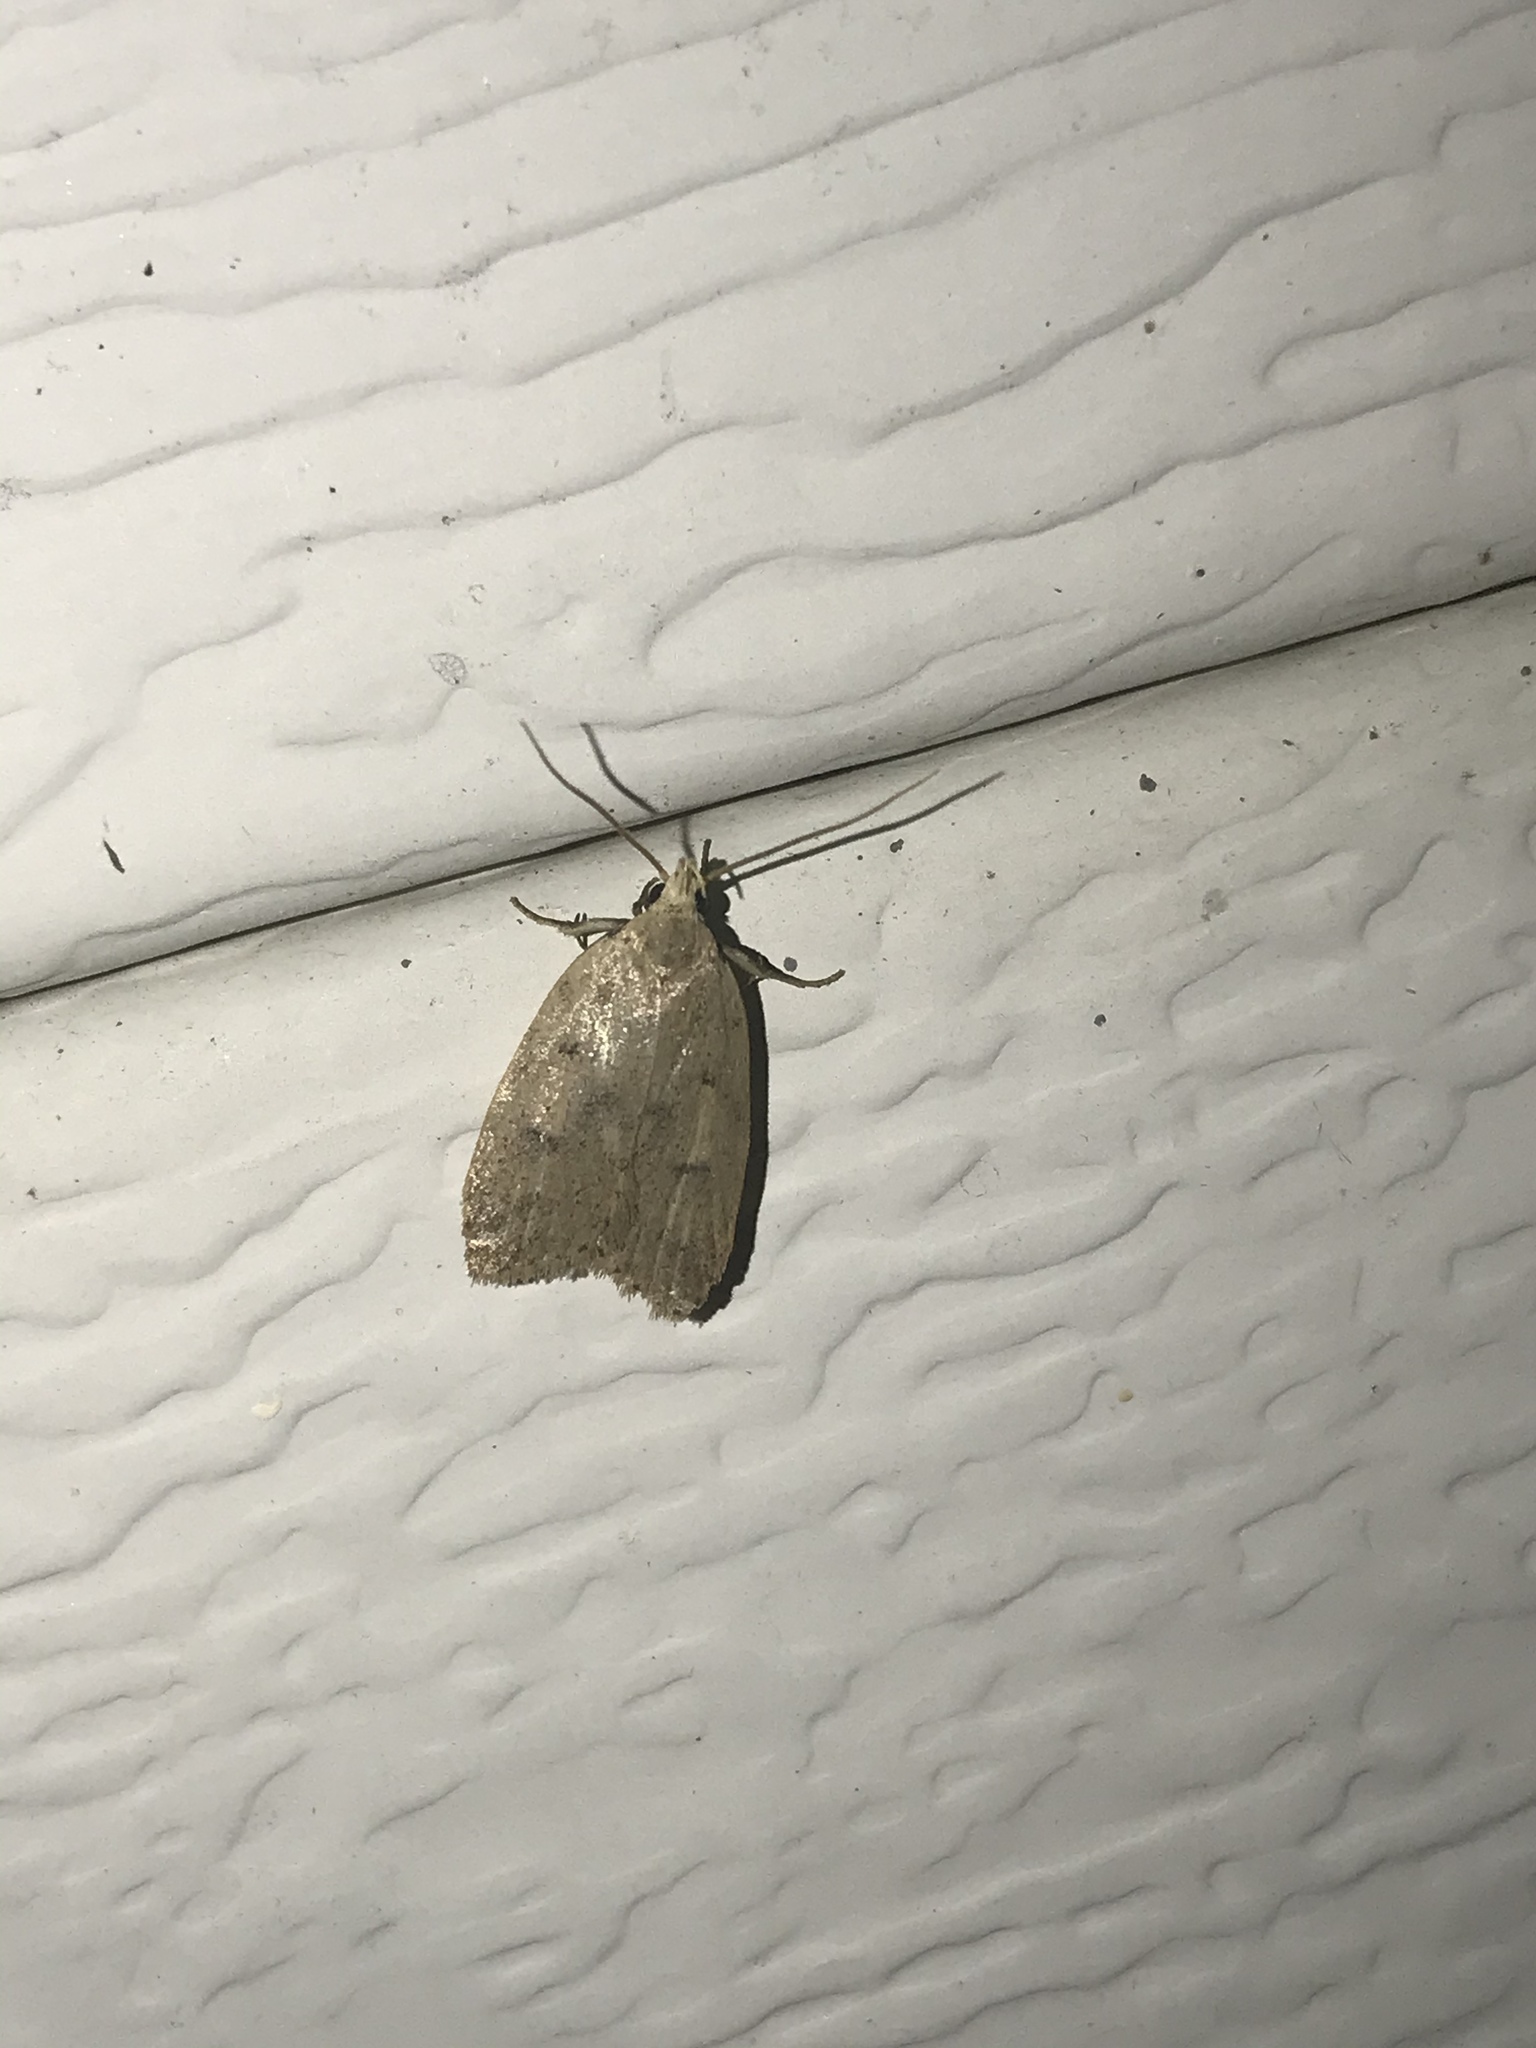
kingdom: Animalia
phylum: Arthropoda
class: Insecta
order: Lepidoptera
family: Peleopodidae
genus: Machimia
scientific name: Machimia tentoriferella
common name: Gold-striped leaftier moth
